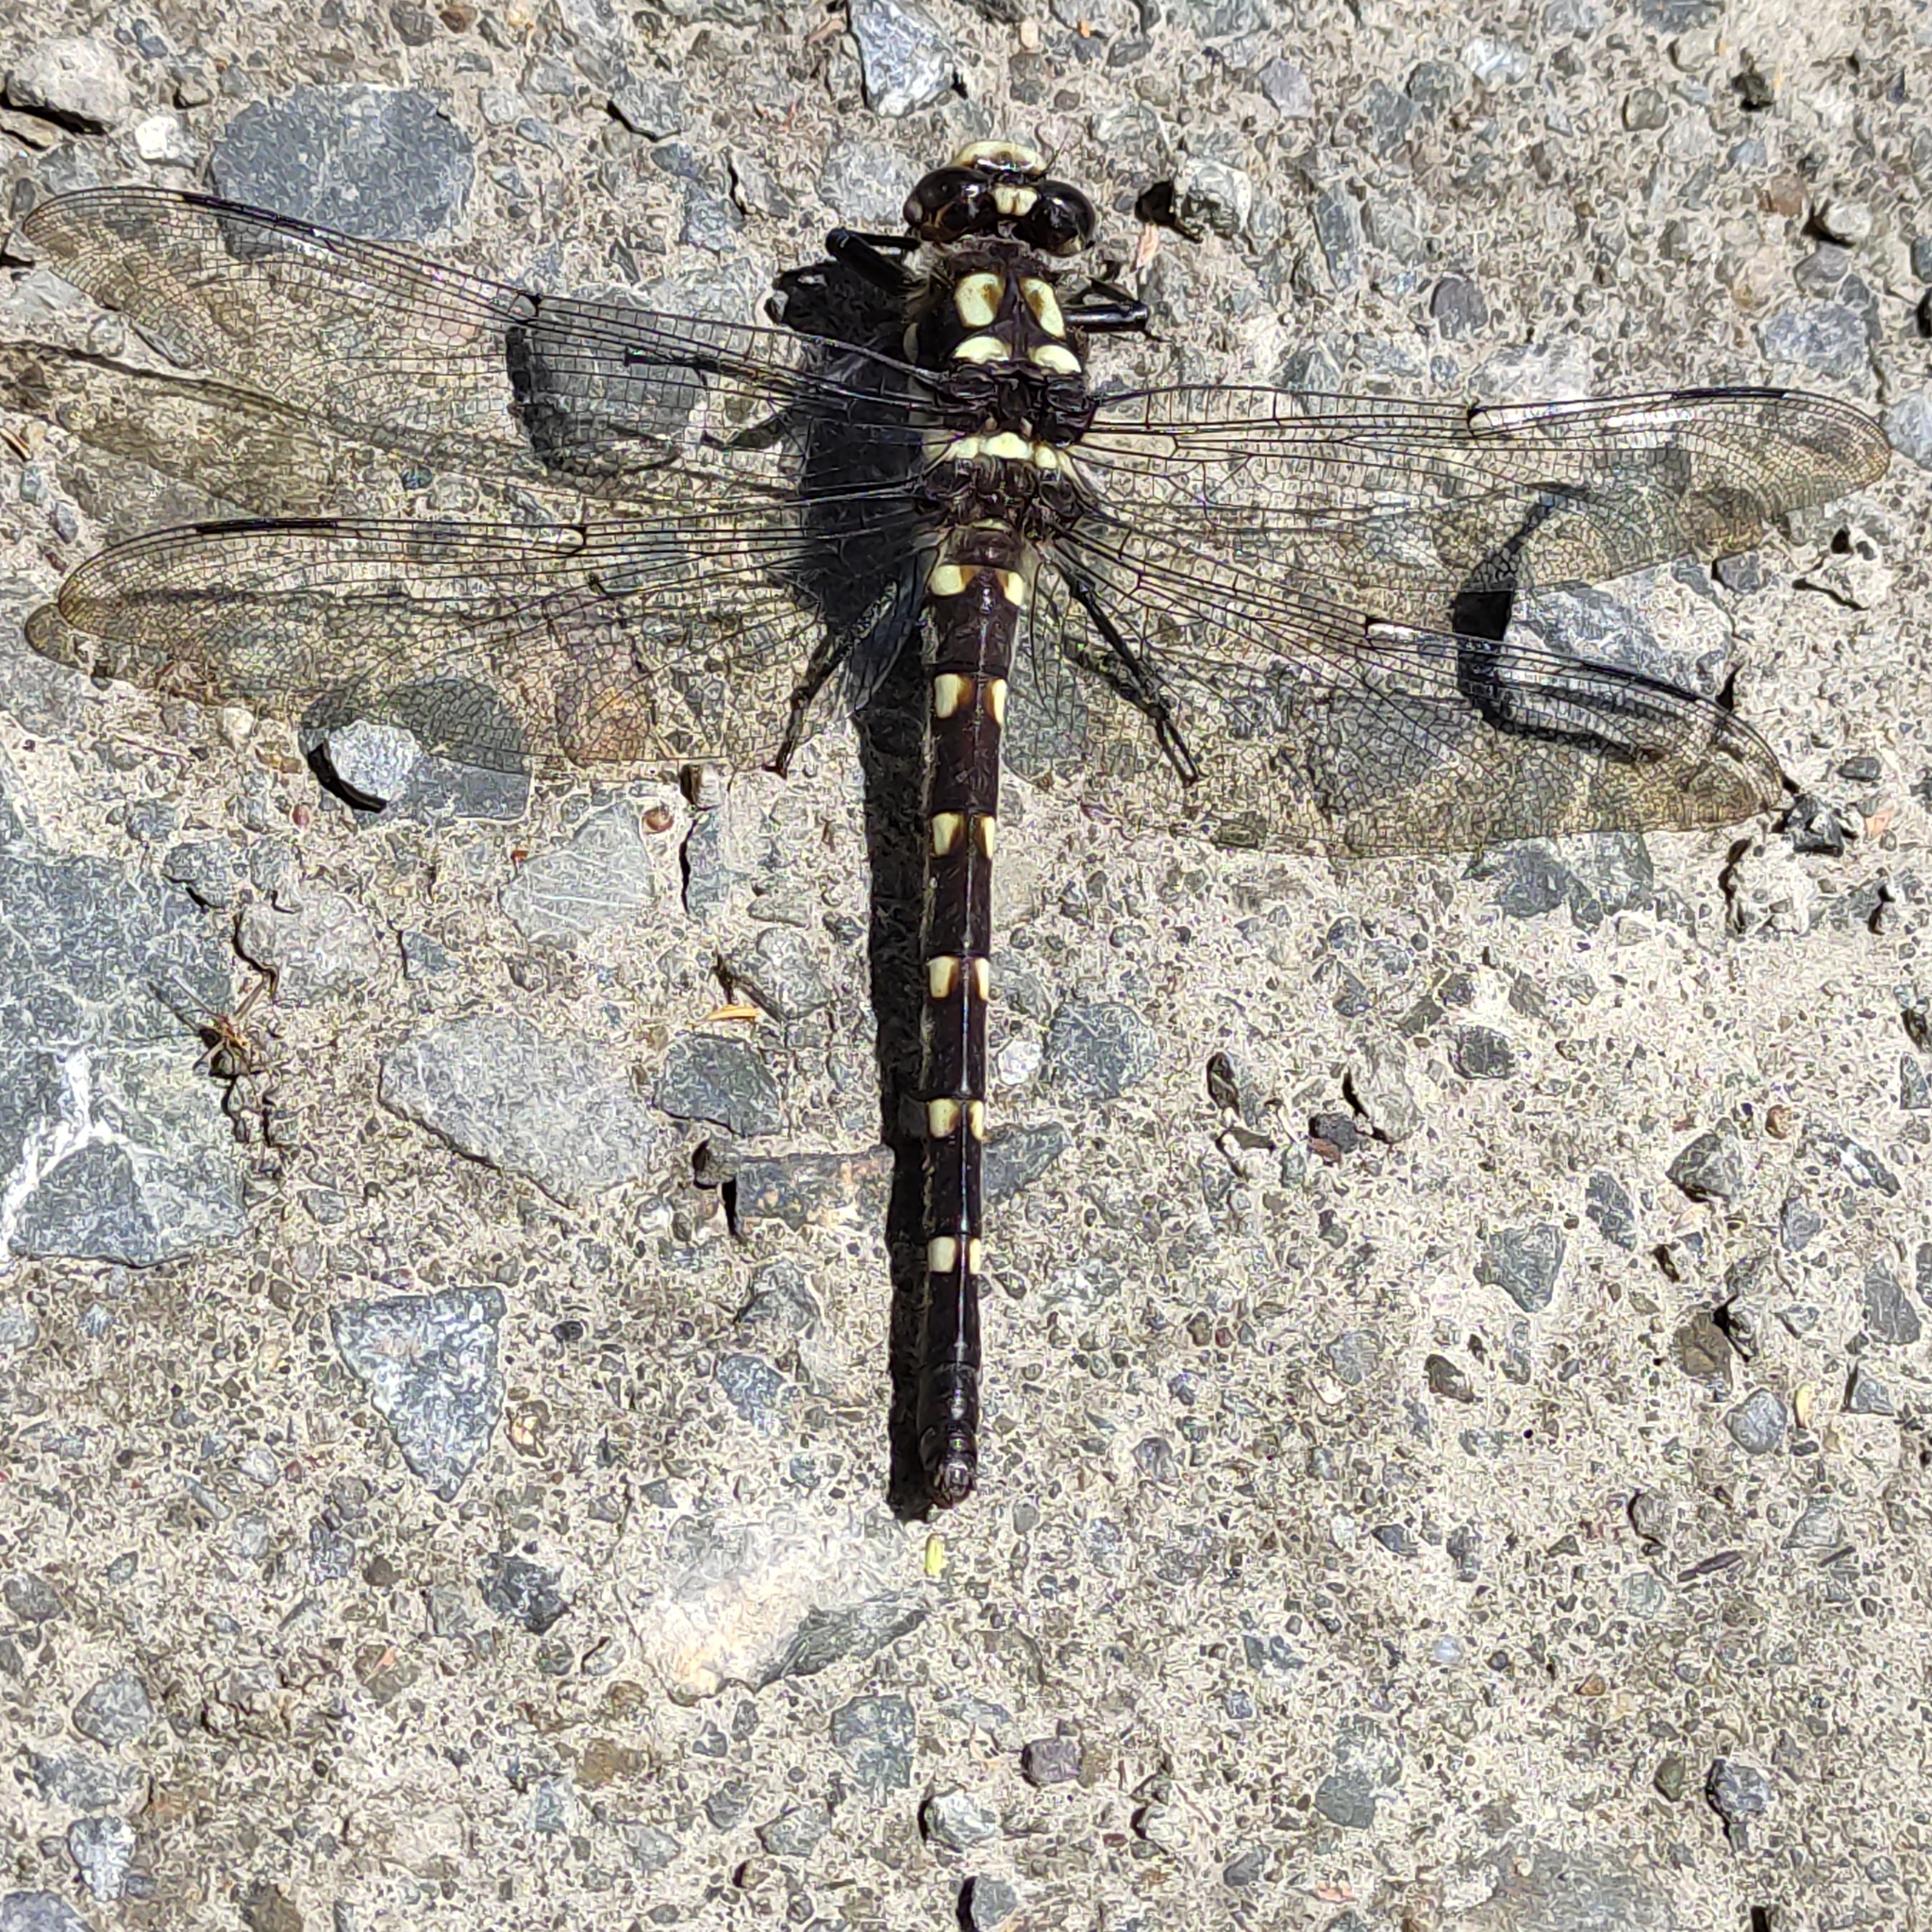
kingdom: Animalia
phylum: Arthropoda
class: Insecta
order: Odonata
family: Petaluridae
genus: Uropetala
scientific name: Uropetala chiltoni
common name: Mountain giant dragonfly
